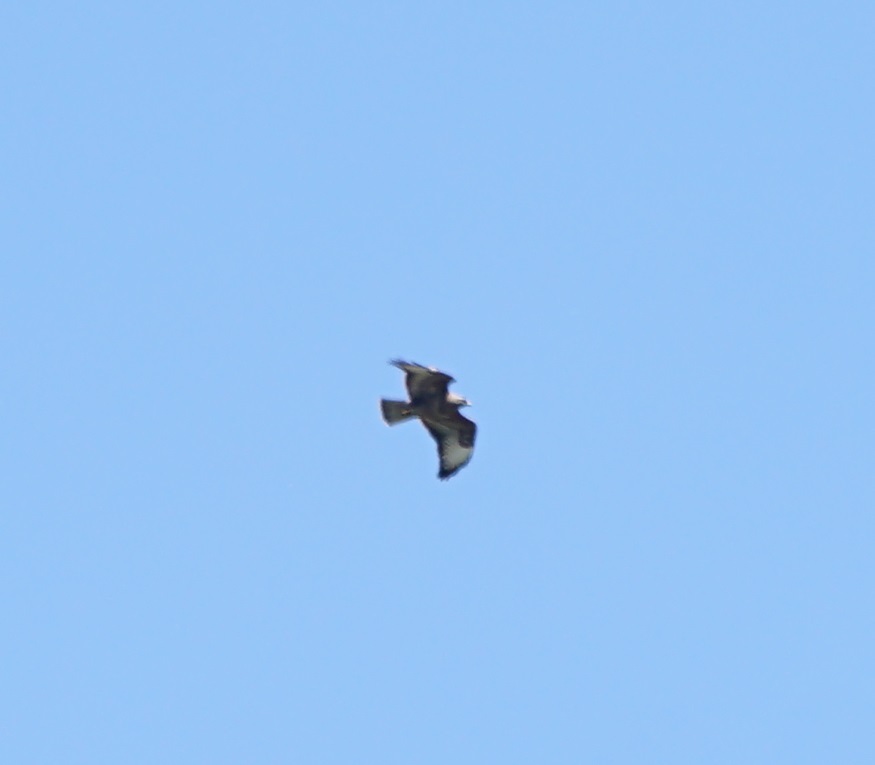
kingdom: Animalia
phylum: Chordata
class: Aves
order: Accipitriformes
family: Accipitridae
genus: Buteo
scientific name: Buteo buteo
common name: Common buzzard
